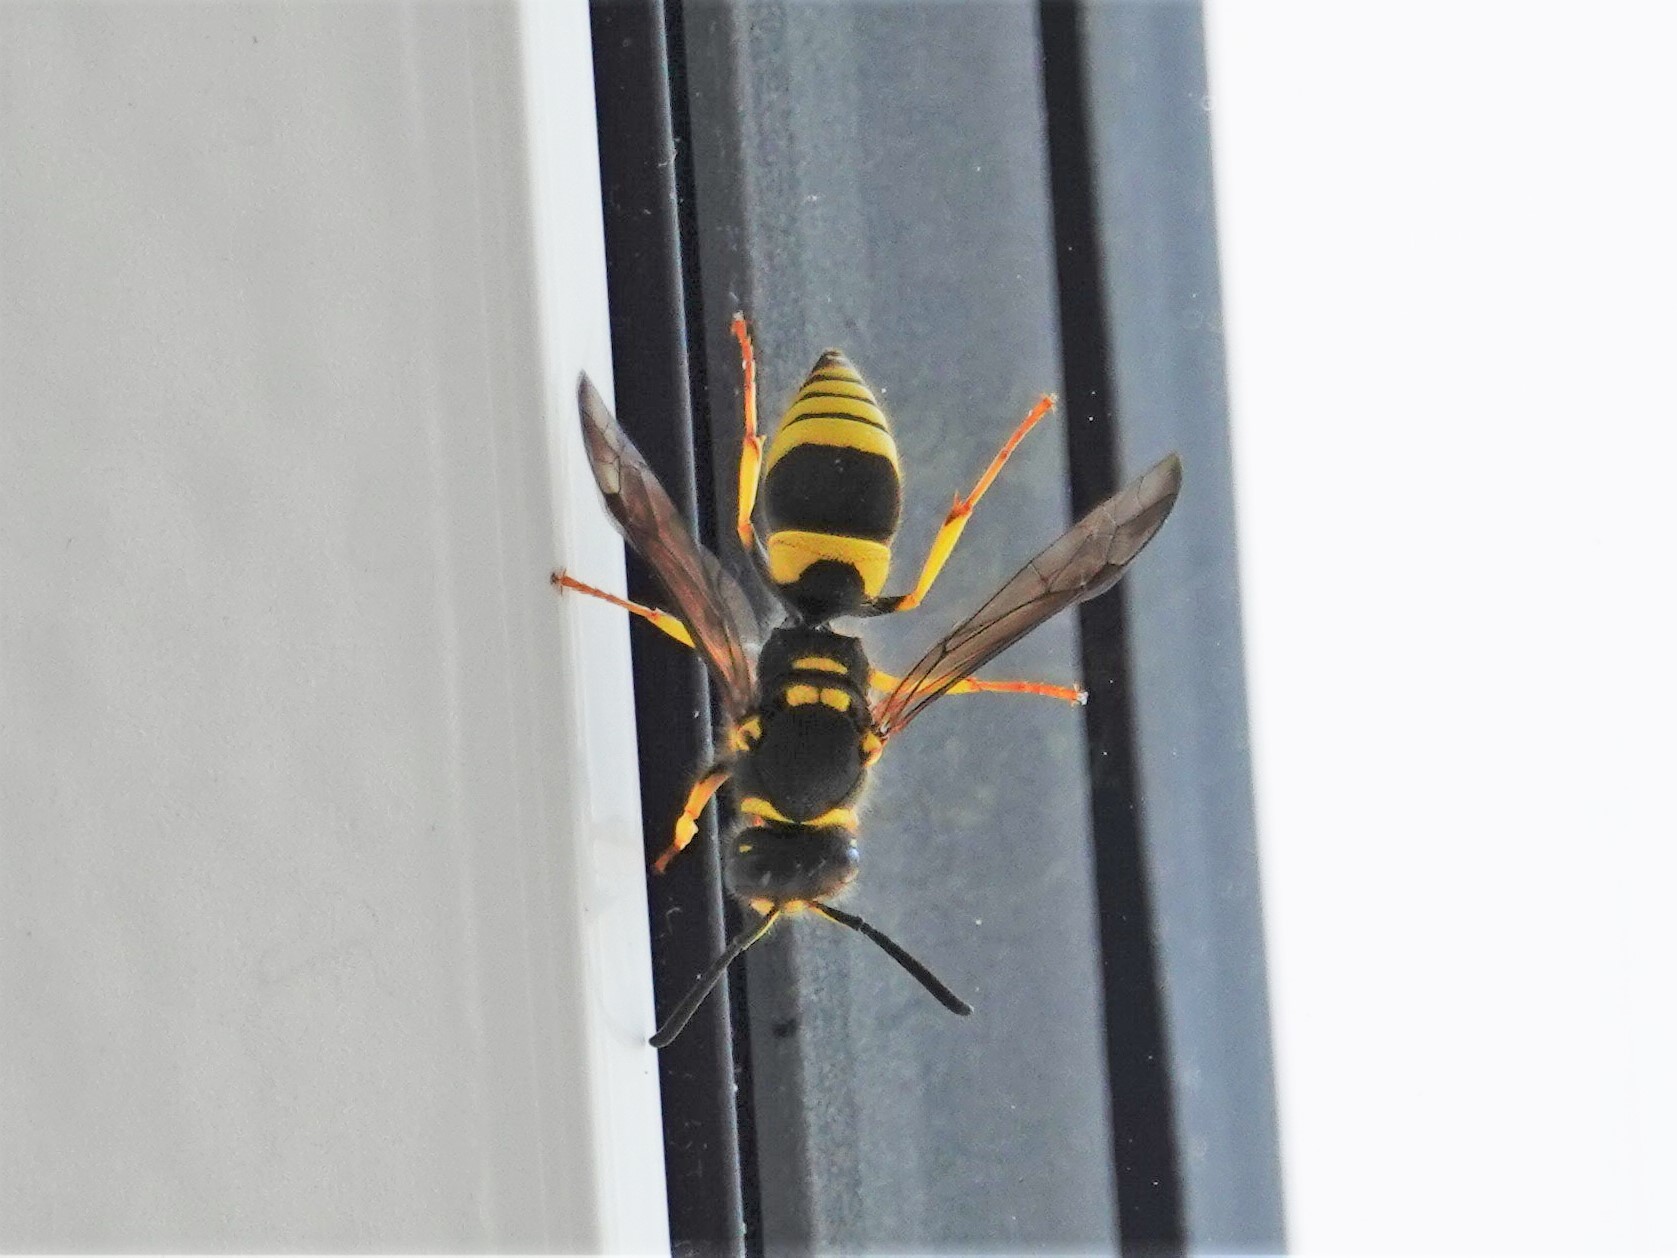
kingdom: Animalia
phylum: Arthropoda
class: Insecta
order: Hymenoptera
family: Vespidae
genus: Ancistrocerus
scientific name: Ancistrocerus gazella
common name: European tube wasp
